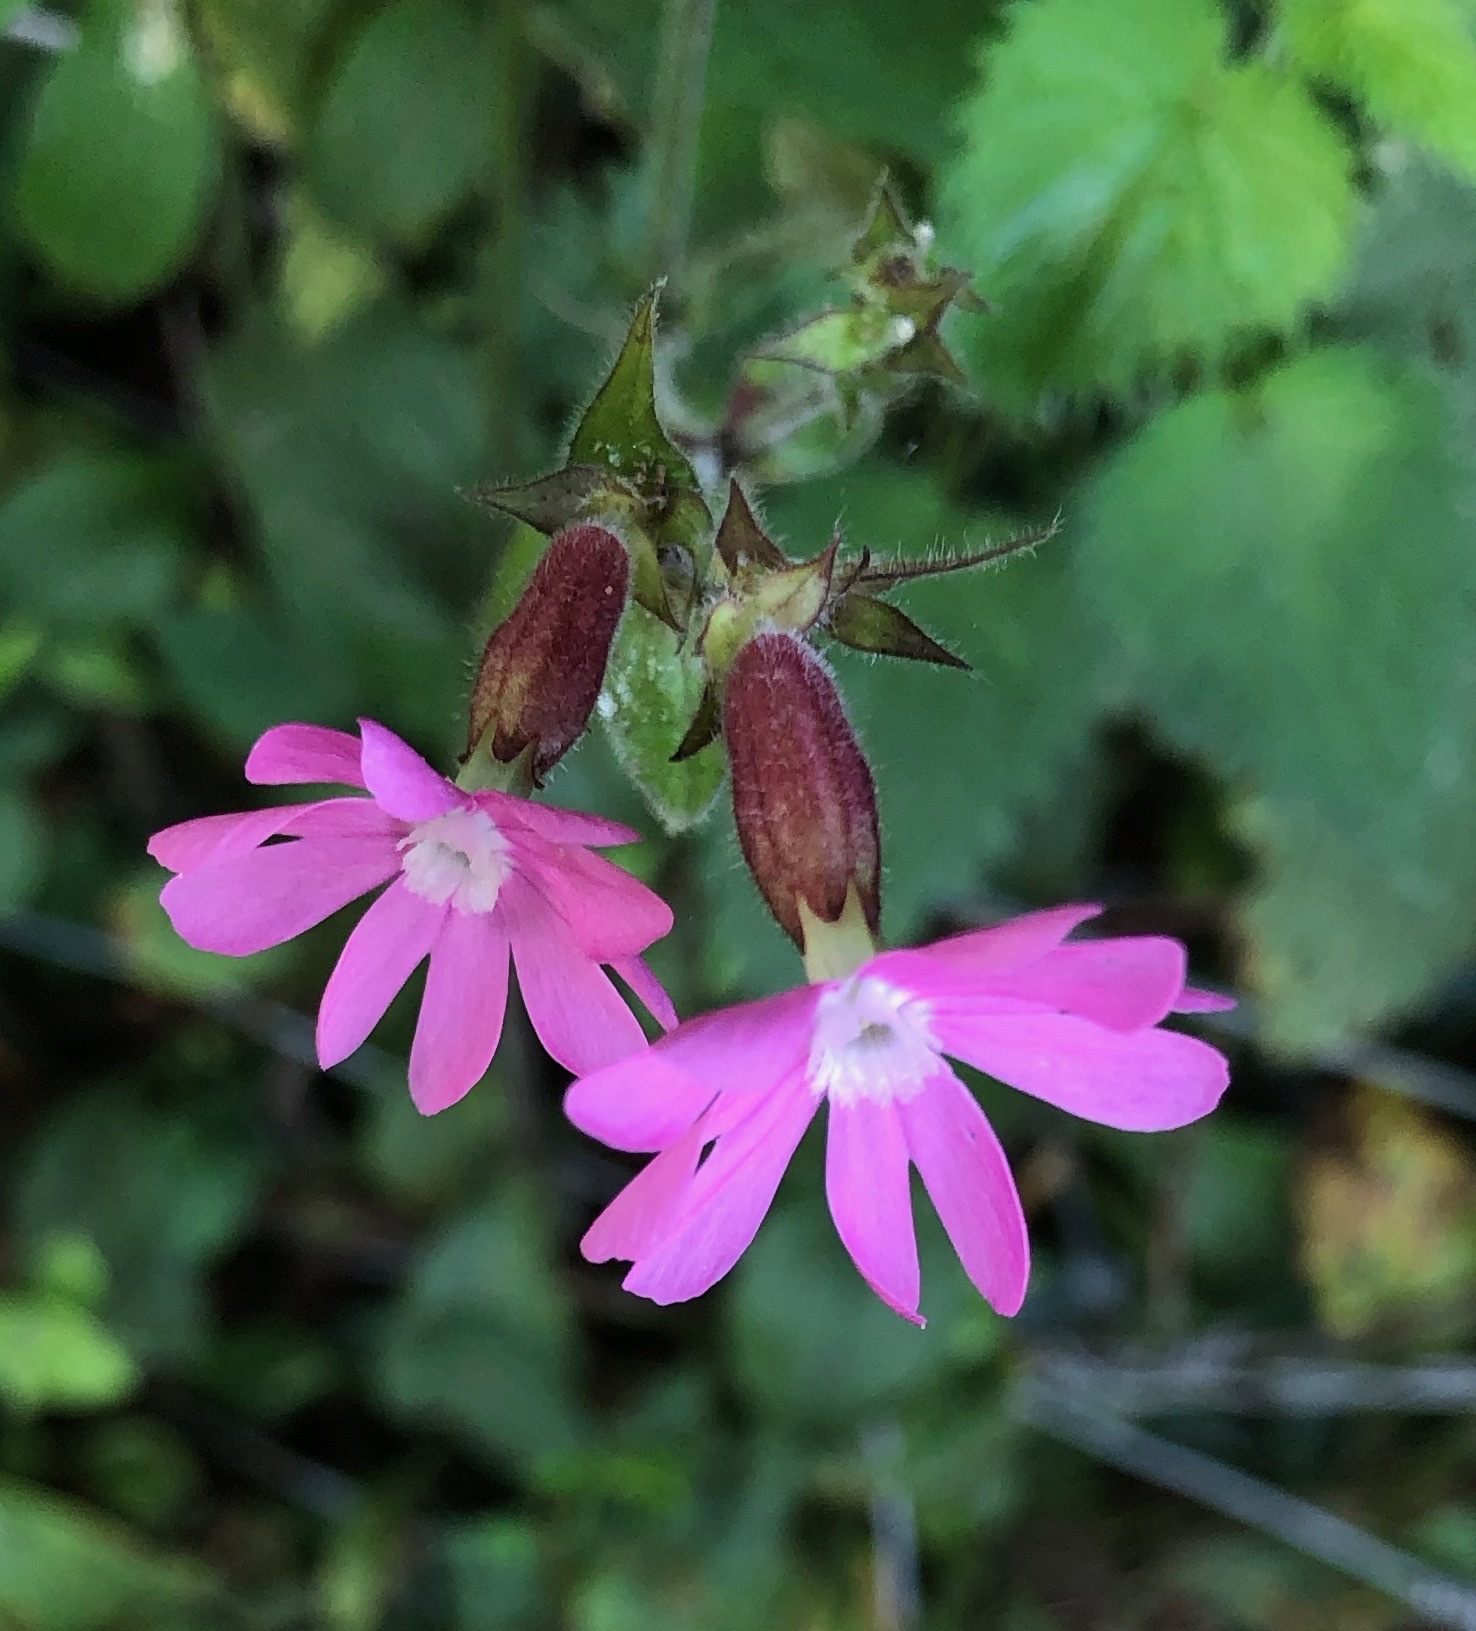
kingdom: Plantae
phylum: Tracheophyta
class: Magnoliopsida
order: Caryophyllales
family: Caryophyllaceae
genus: Silene
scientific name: Silene dioica
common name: Red campion
